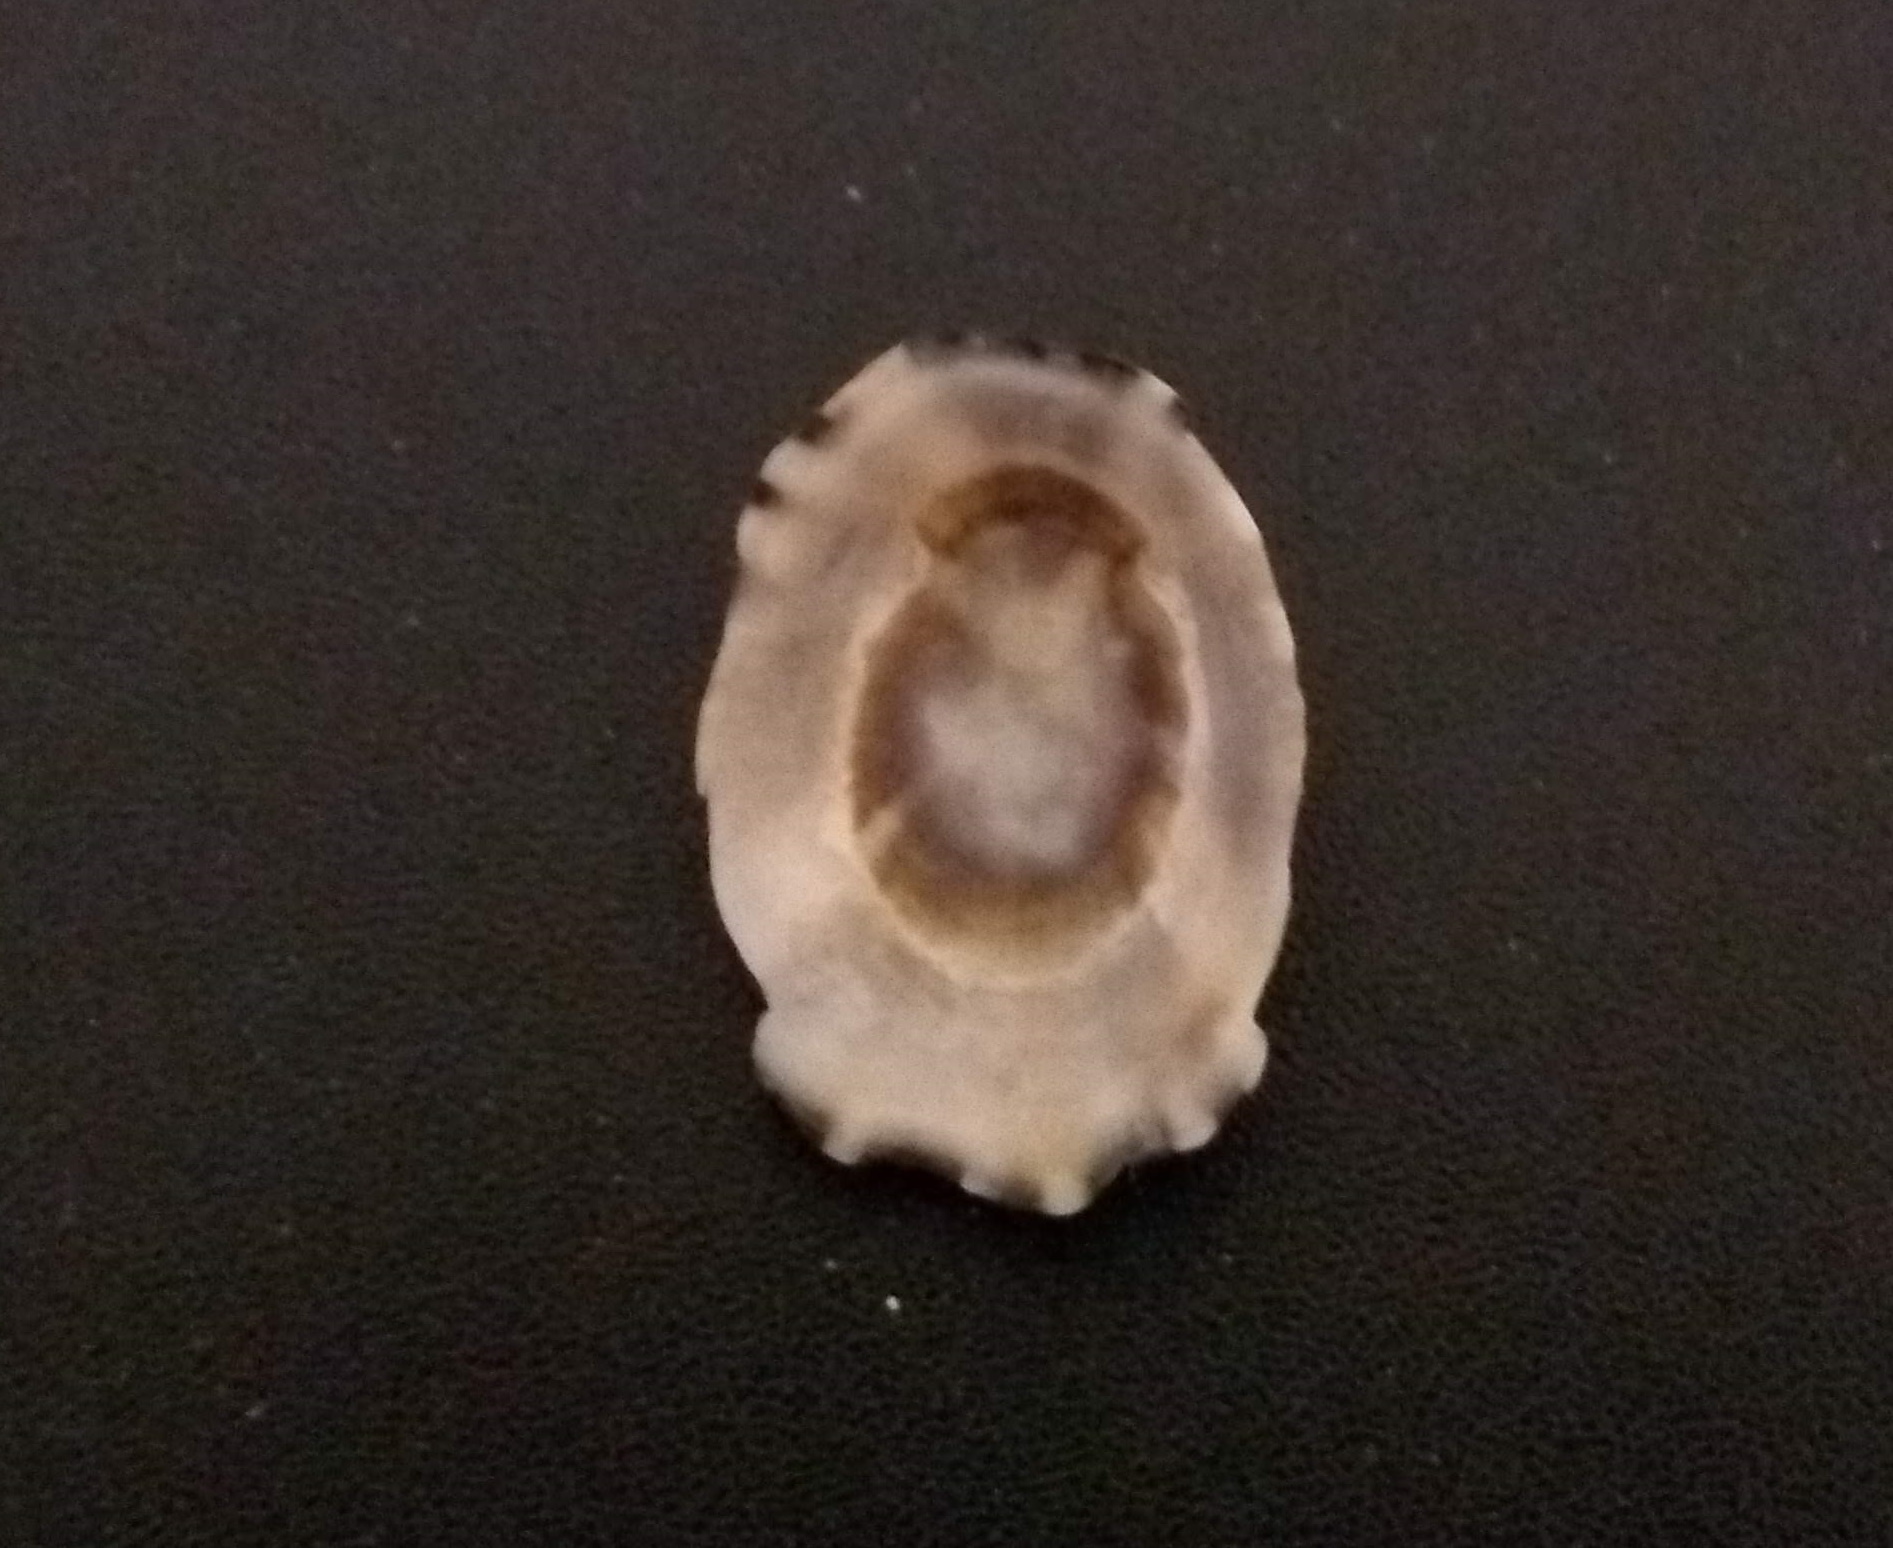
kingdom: Animalia
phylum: Mollusca
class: Gastropoda
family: Lottiidae
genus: Lottia
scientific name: Lottia subrugosa
